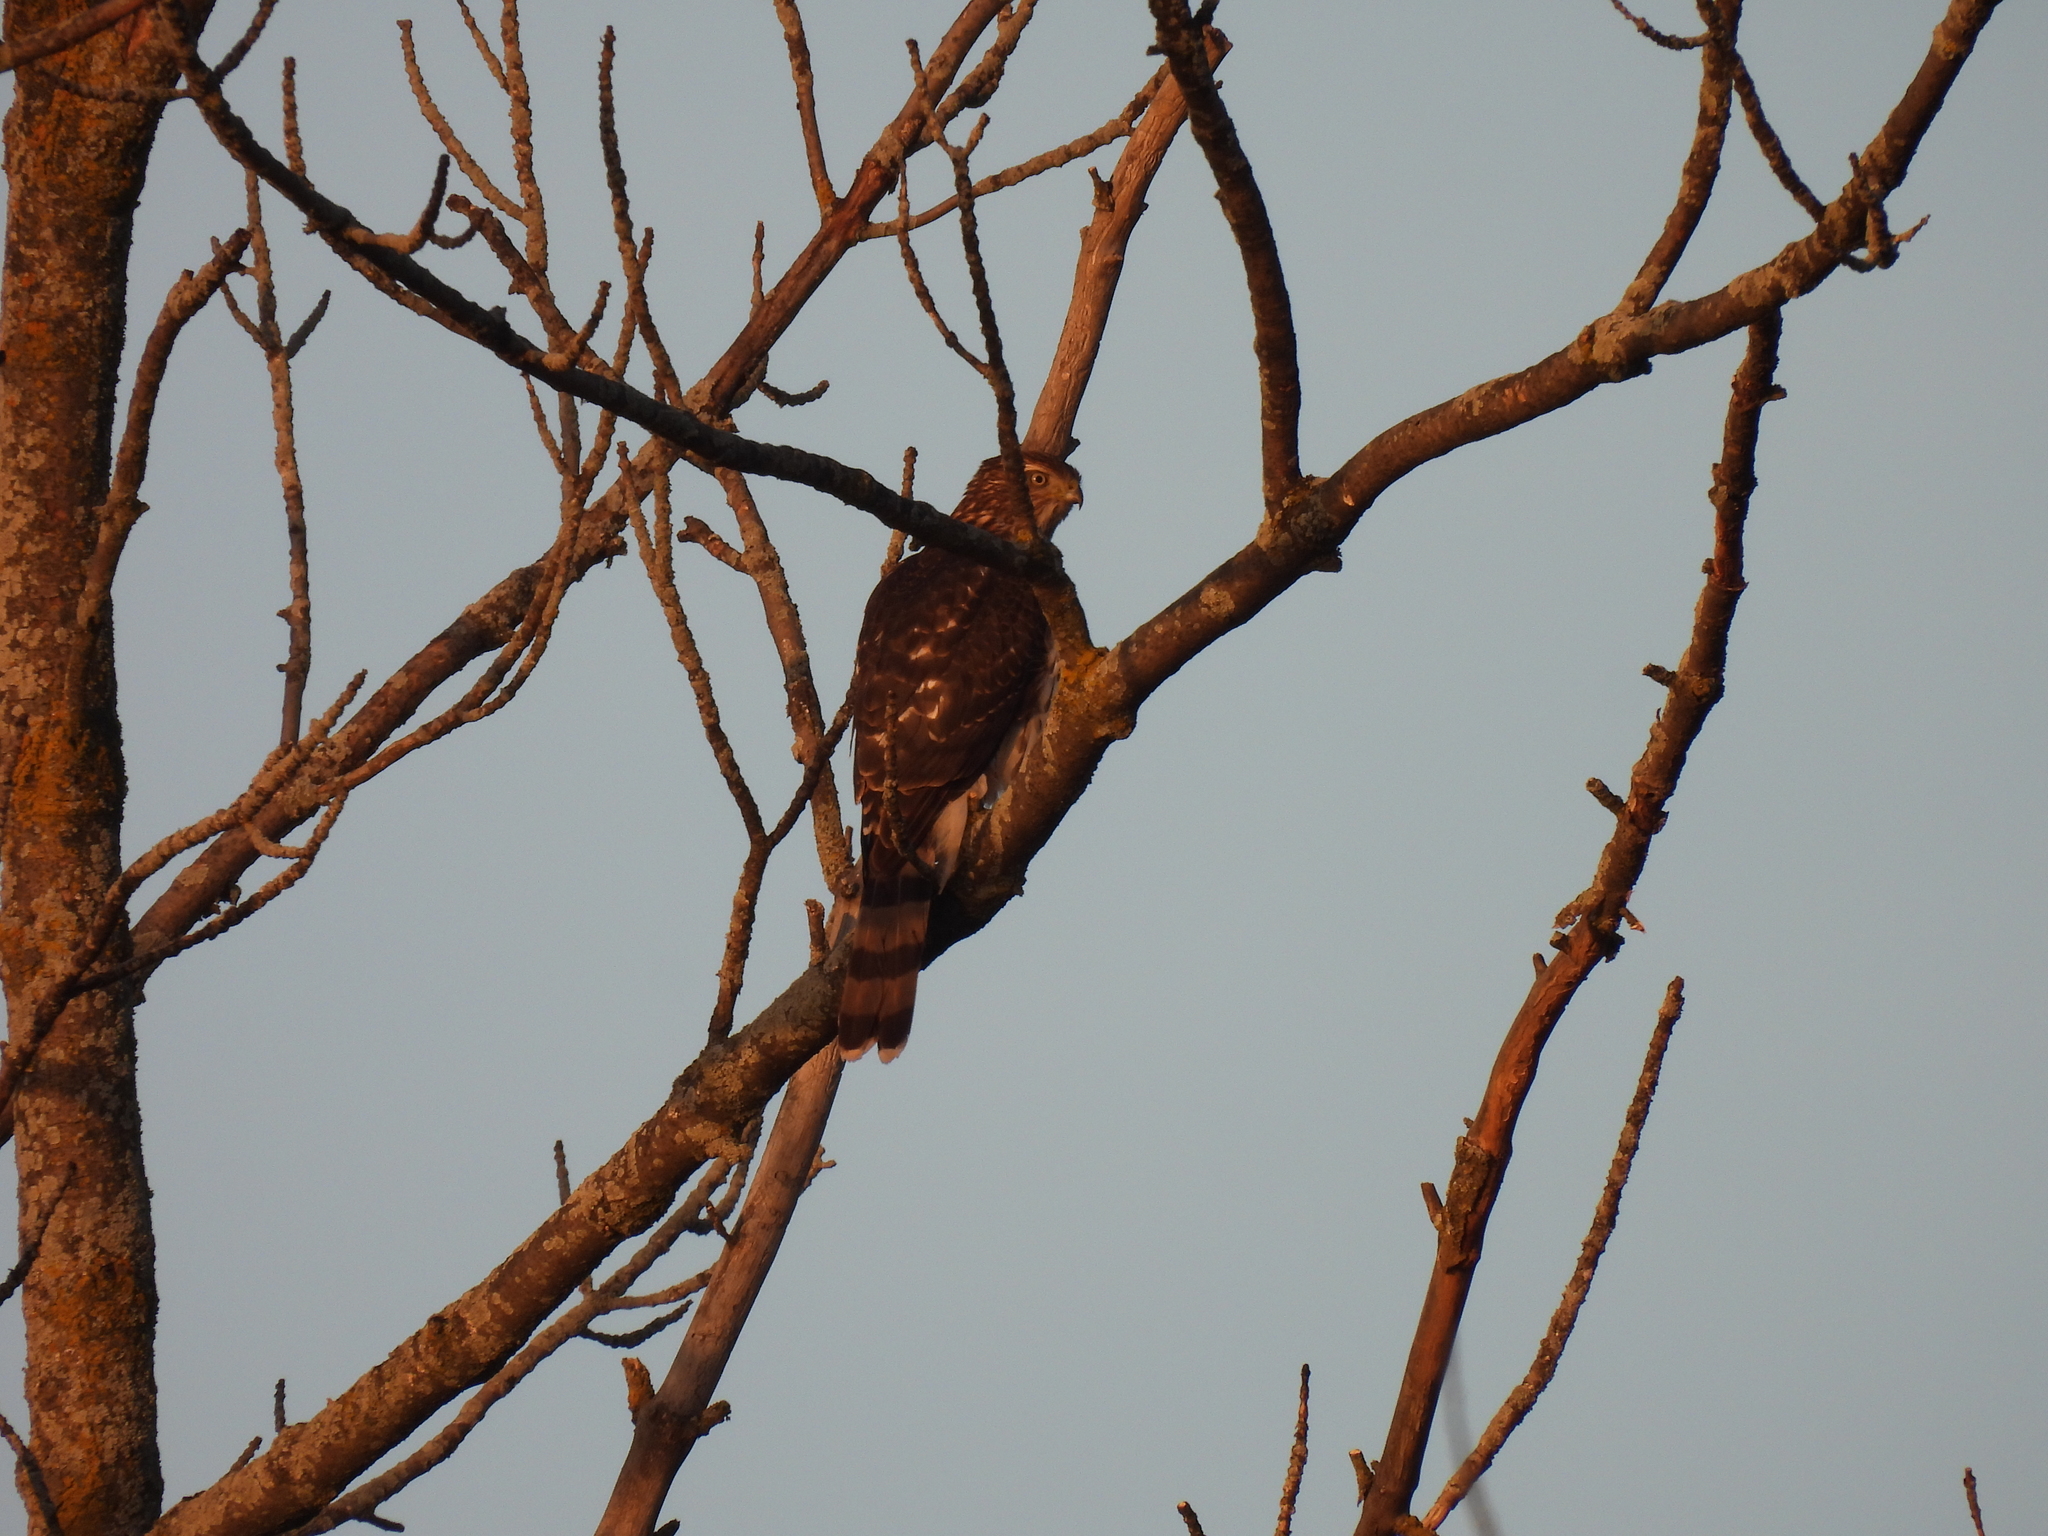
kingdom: Animalia
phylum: Chordata
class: Aves
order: Accipitriformes
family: Accipitridae
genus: Accipiter
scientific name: Accipiter cooperii
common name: Cooper's hawk
